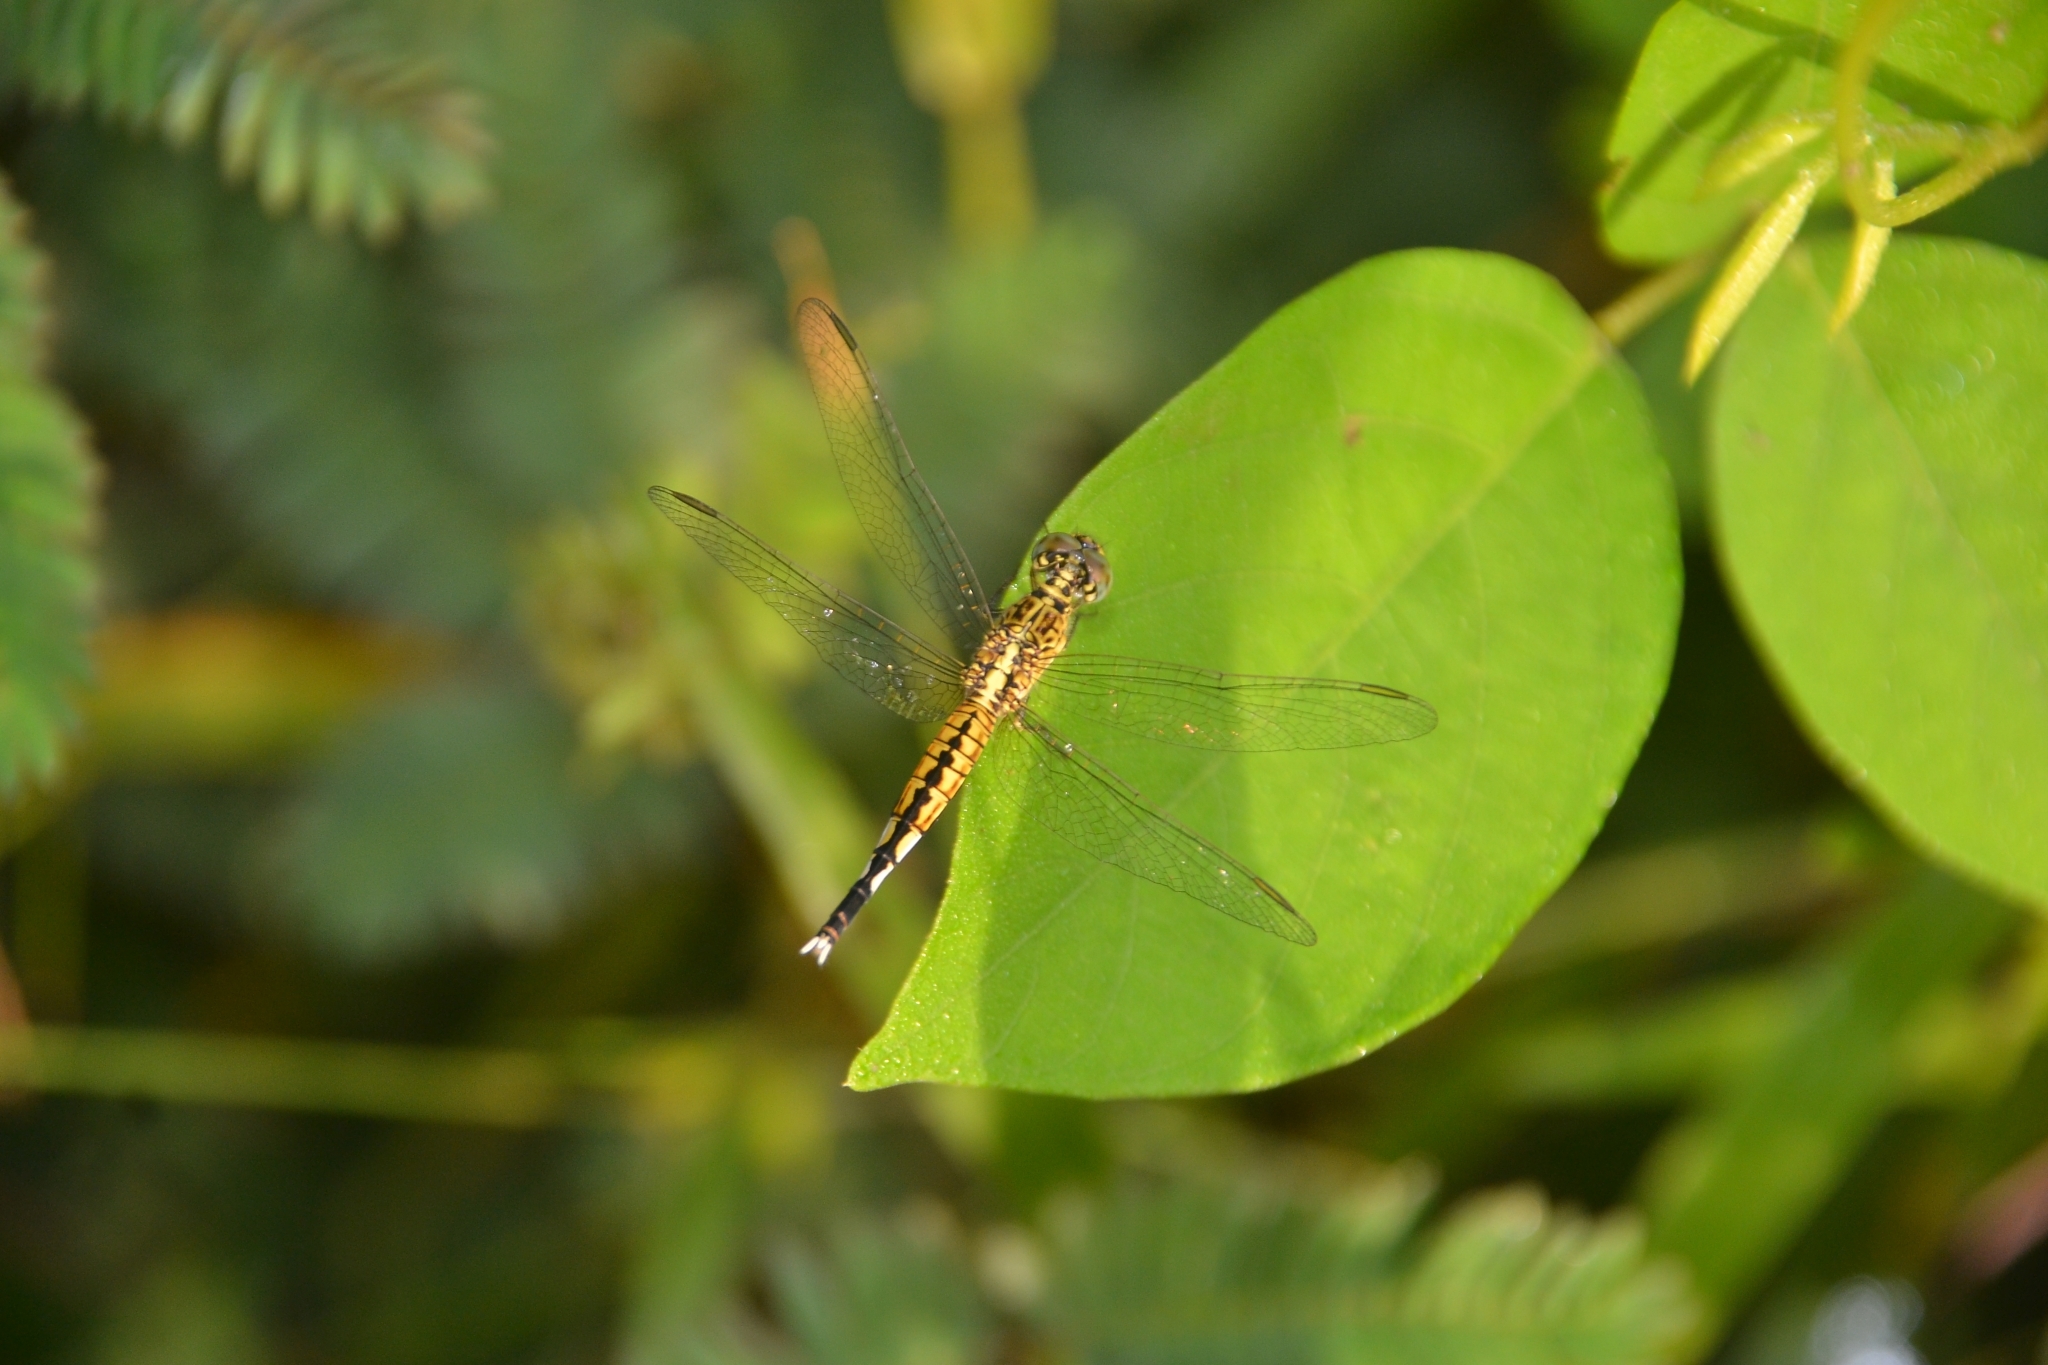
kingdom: Animalia
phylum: Arthropoda
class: Insecta
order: Odonata
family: Libellulidae
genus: Acisoma
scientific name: Acisoma panorpoides
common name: Asian pintail
